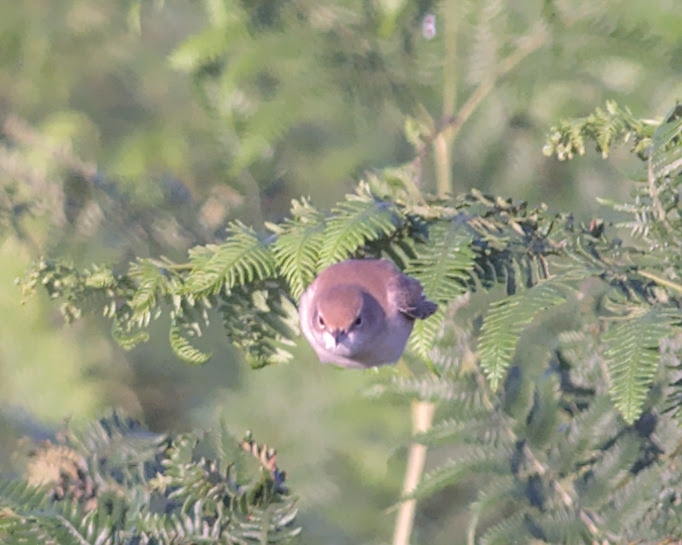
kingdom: Animalia
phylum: Chordata
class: Aves
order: Passeriformes
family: Sylviidae
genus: Sylvia
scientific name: Sylvia borin
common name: Garden warbler
